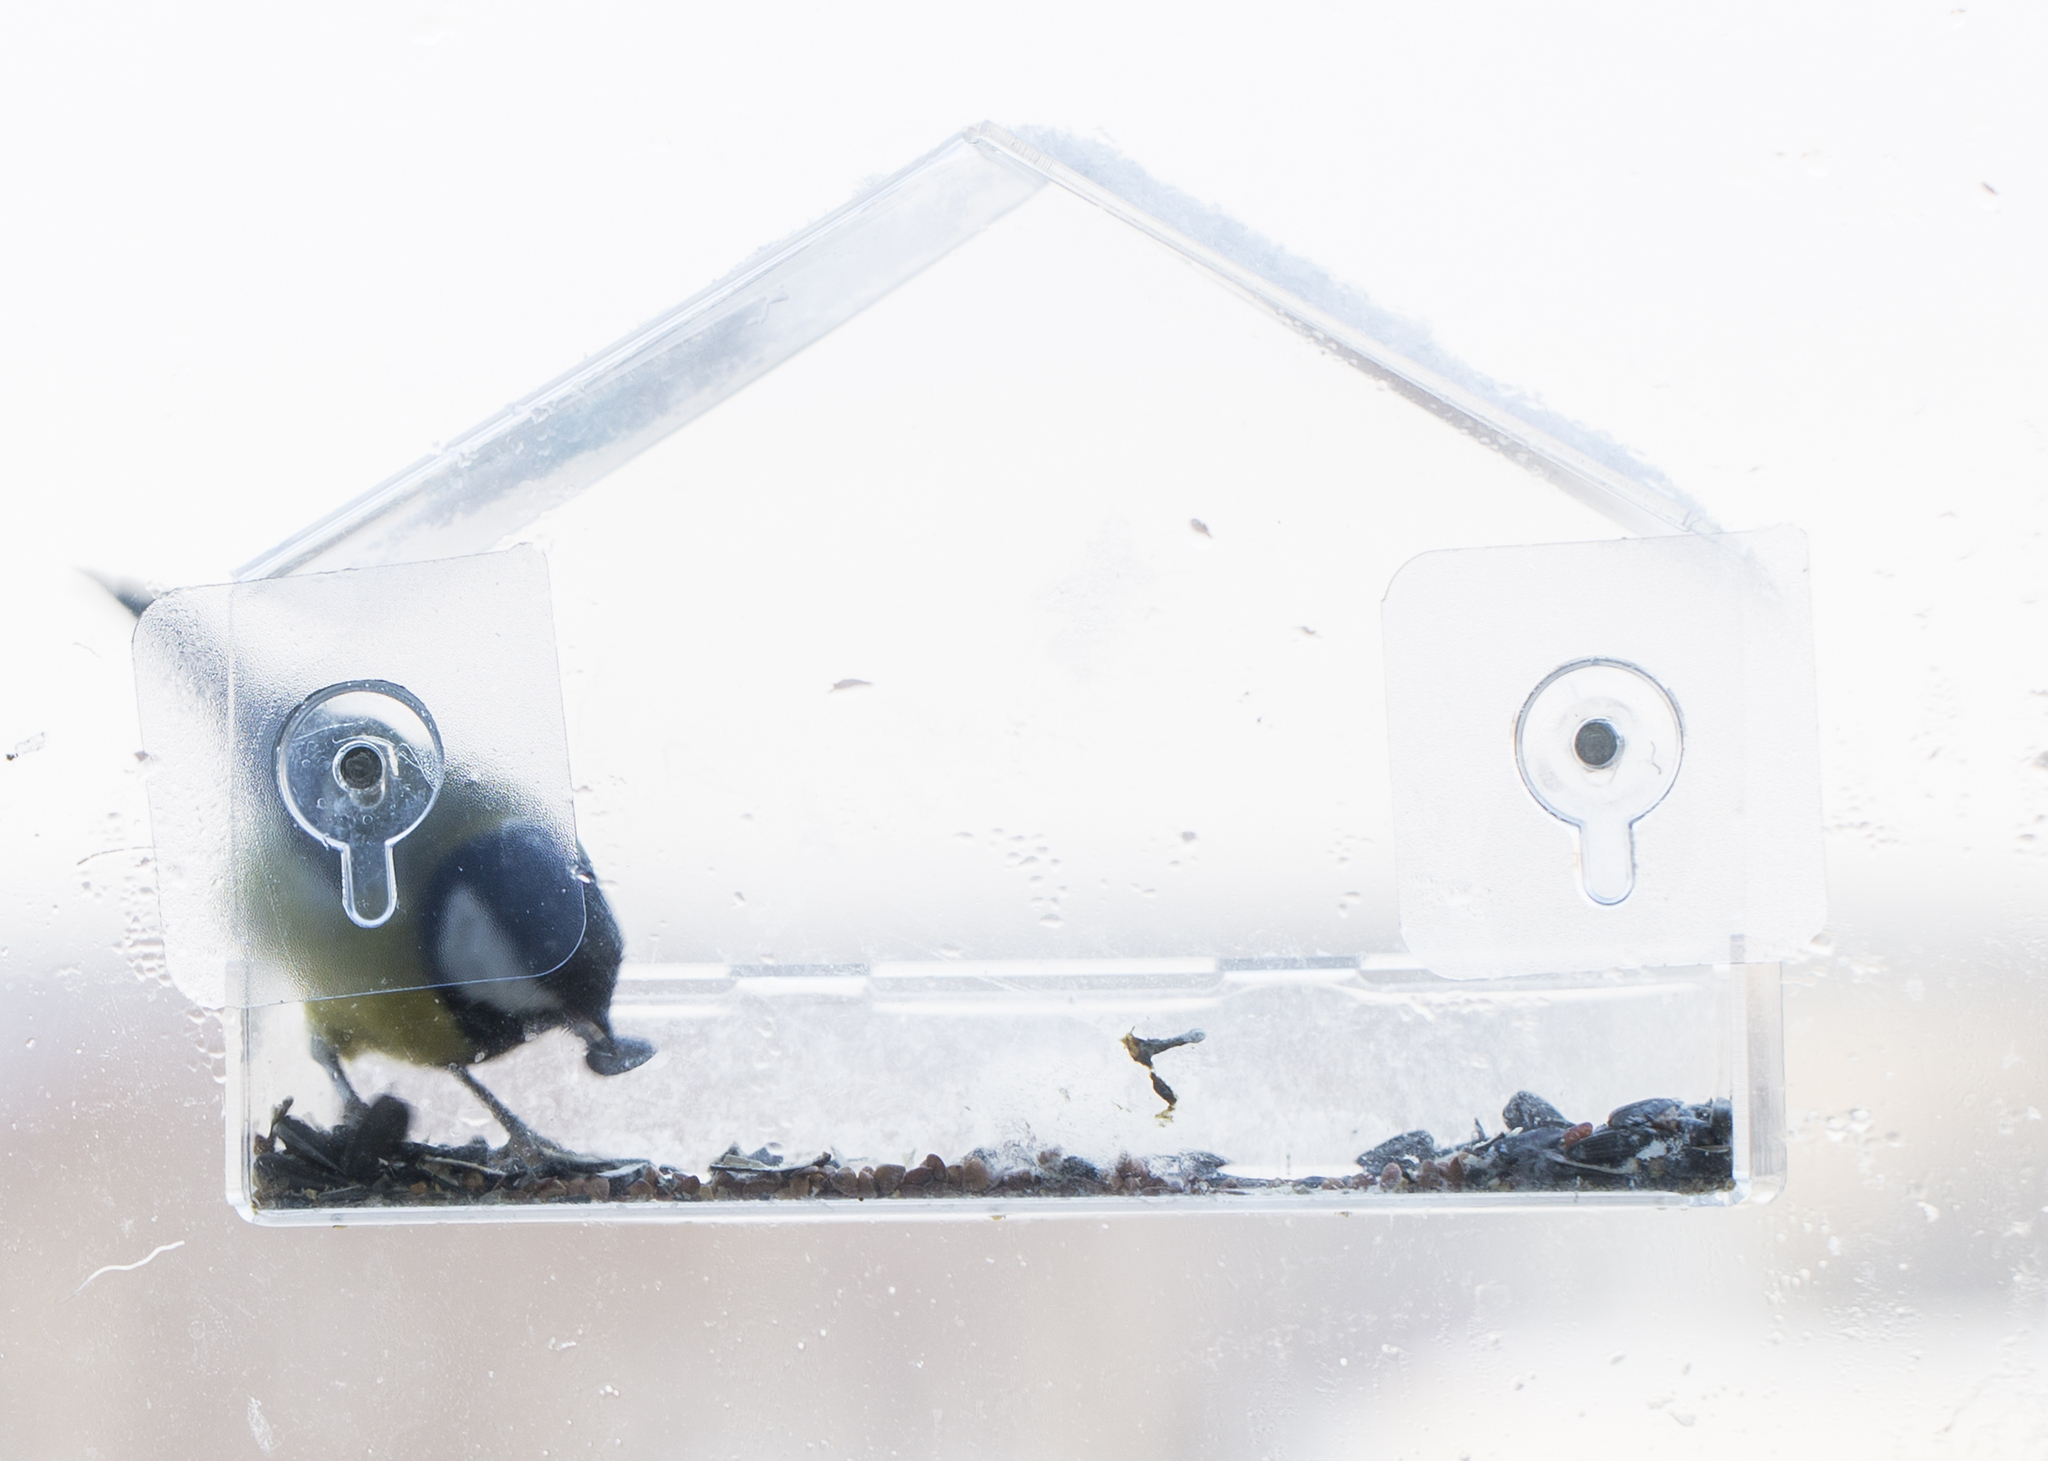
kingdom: Animalia
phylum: Chordata
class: Aves
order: Passeriformes
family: Paridae
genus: Parus
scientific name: Parus major
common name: Great tit
